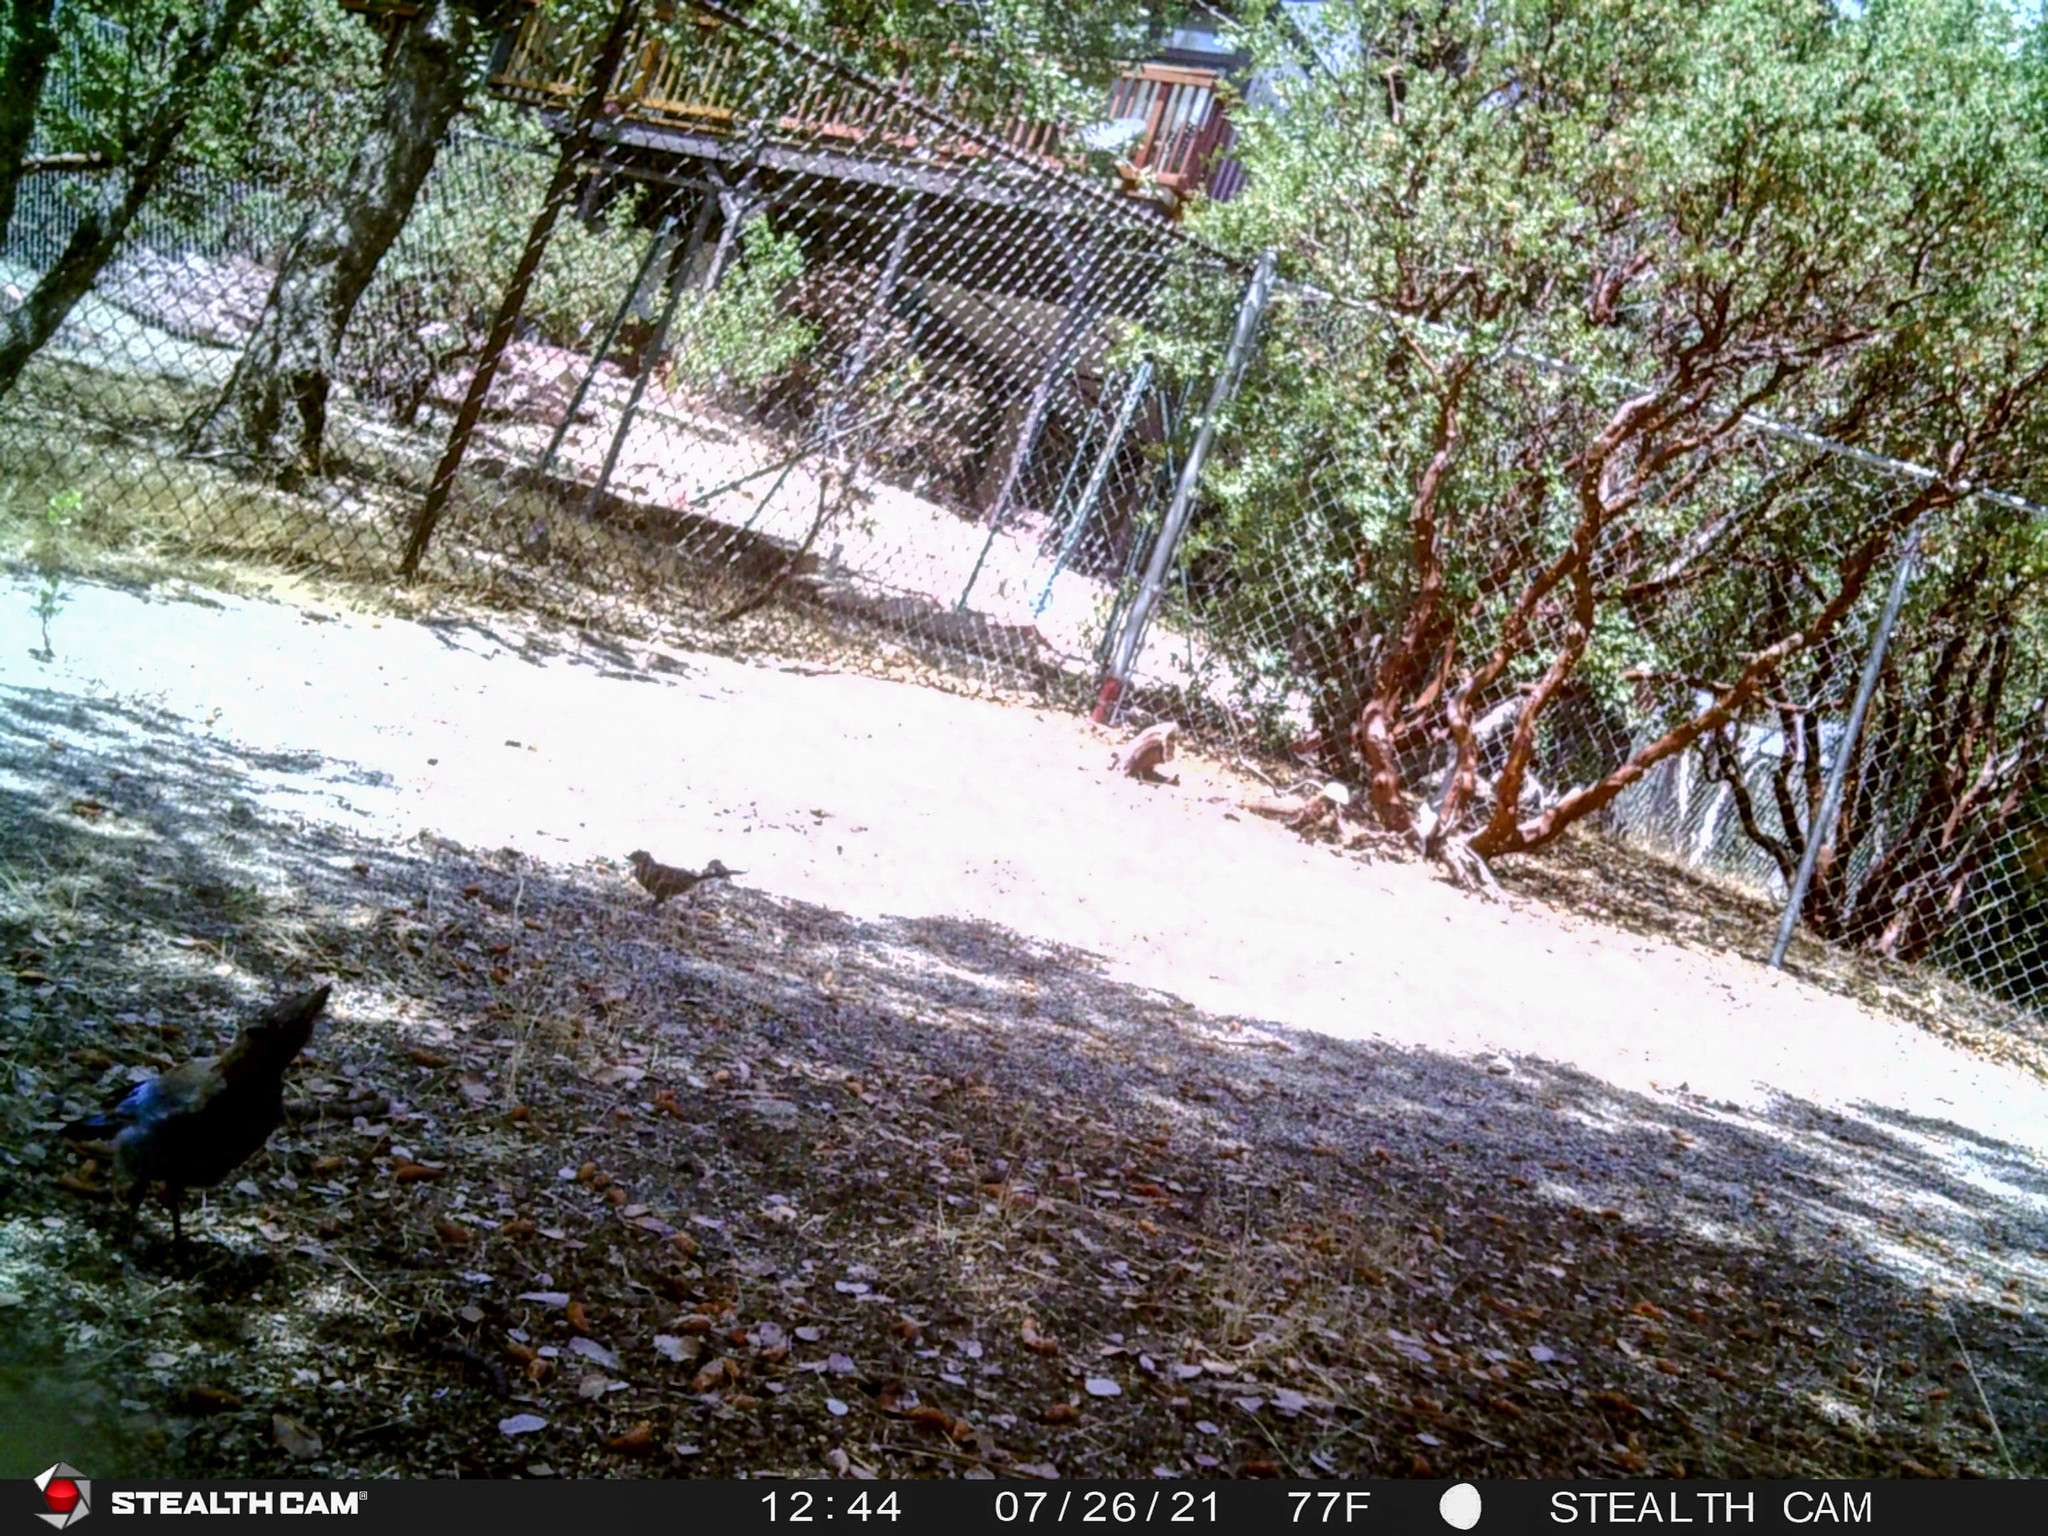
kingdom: Animalia
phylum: Chordata
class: Aves
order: Passeriformes
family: Corvidae
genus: Cyanocitta
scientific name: Cyanocitta stelleri
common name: Steller's jay
